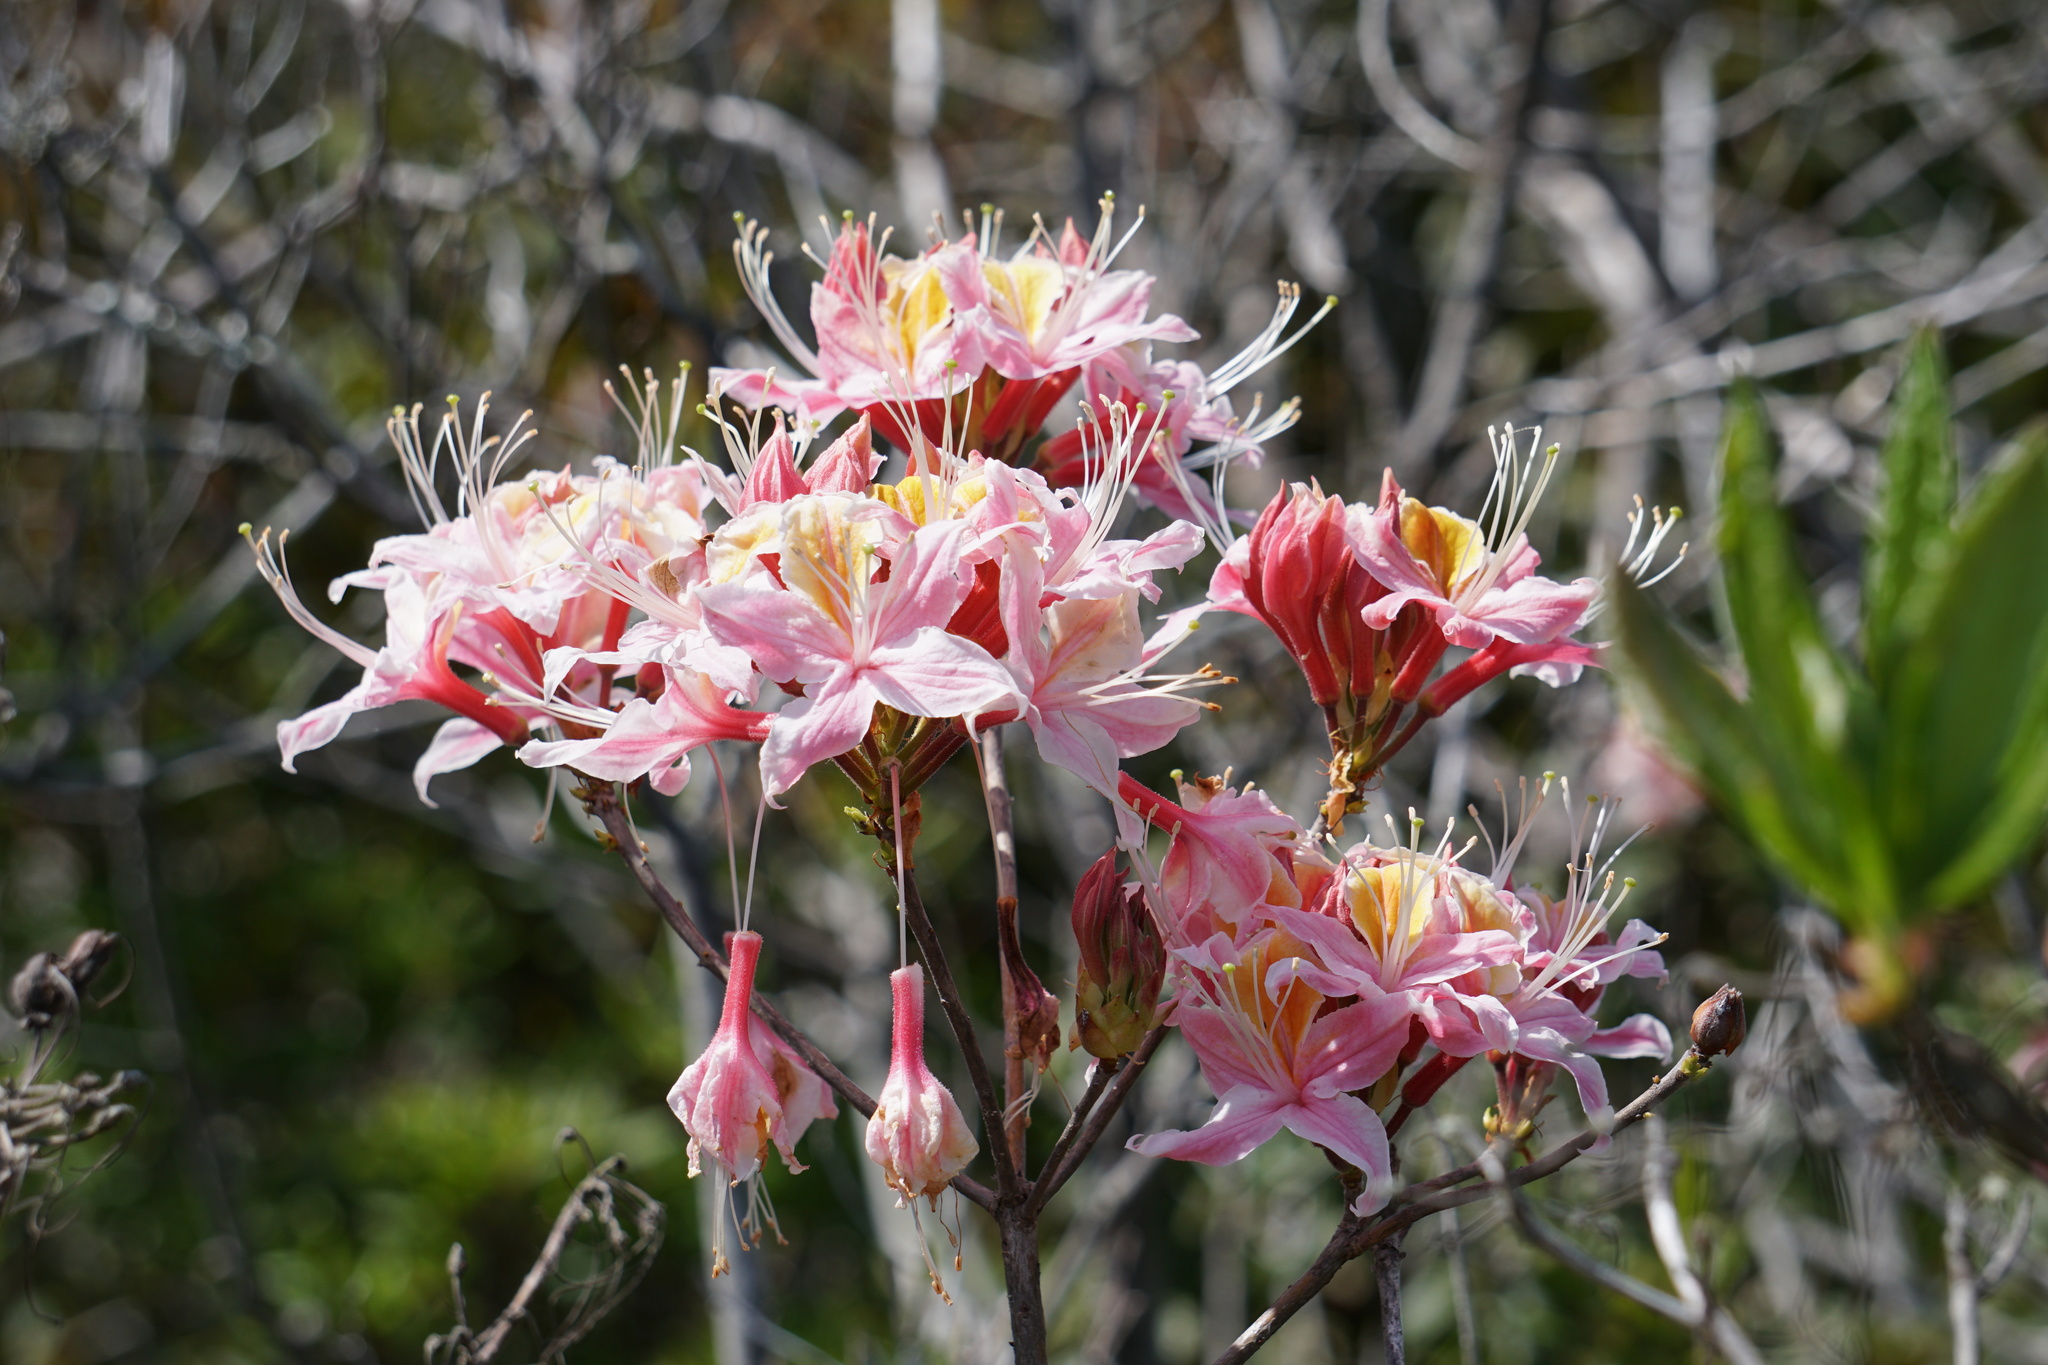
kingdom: Plantae
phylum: Tracheophyta
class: Magnoliopsida
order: Ericales
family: Ericaceae
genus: Rhododendron
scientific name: Rhododendron occidentale
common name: Western azalea
